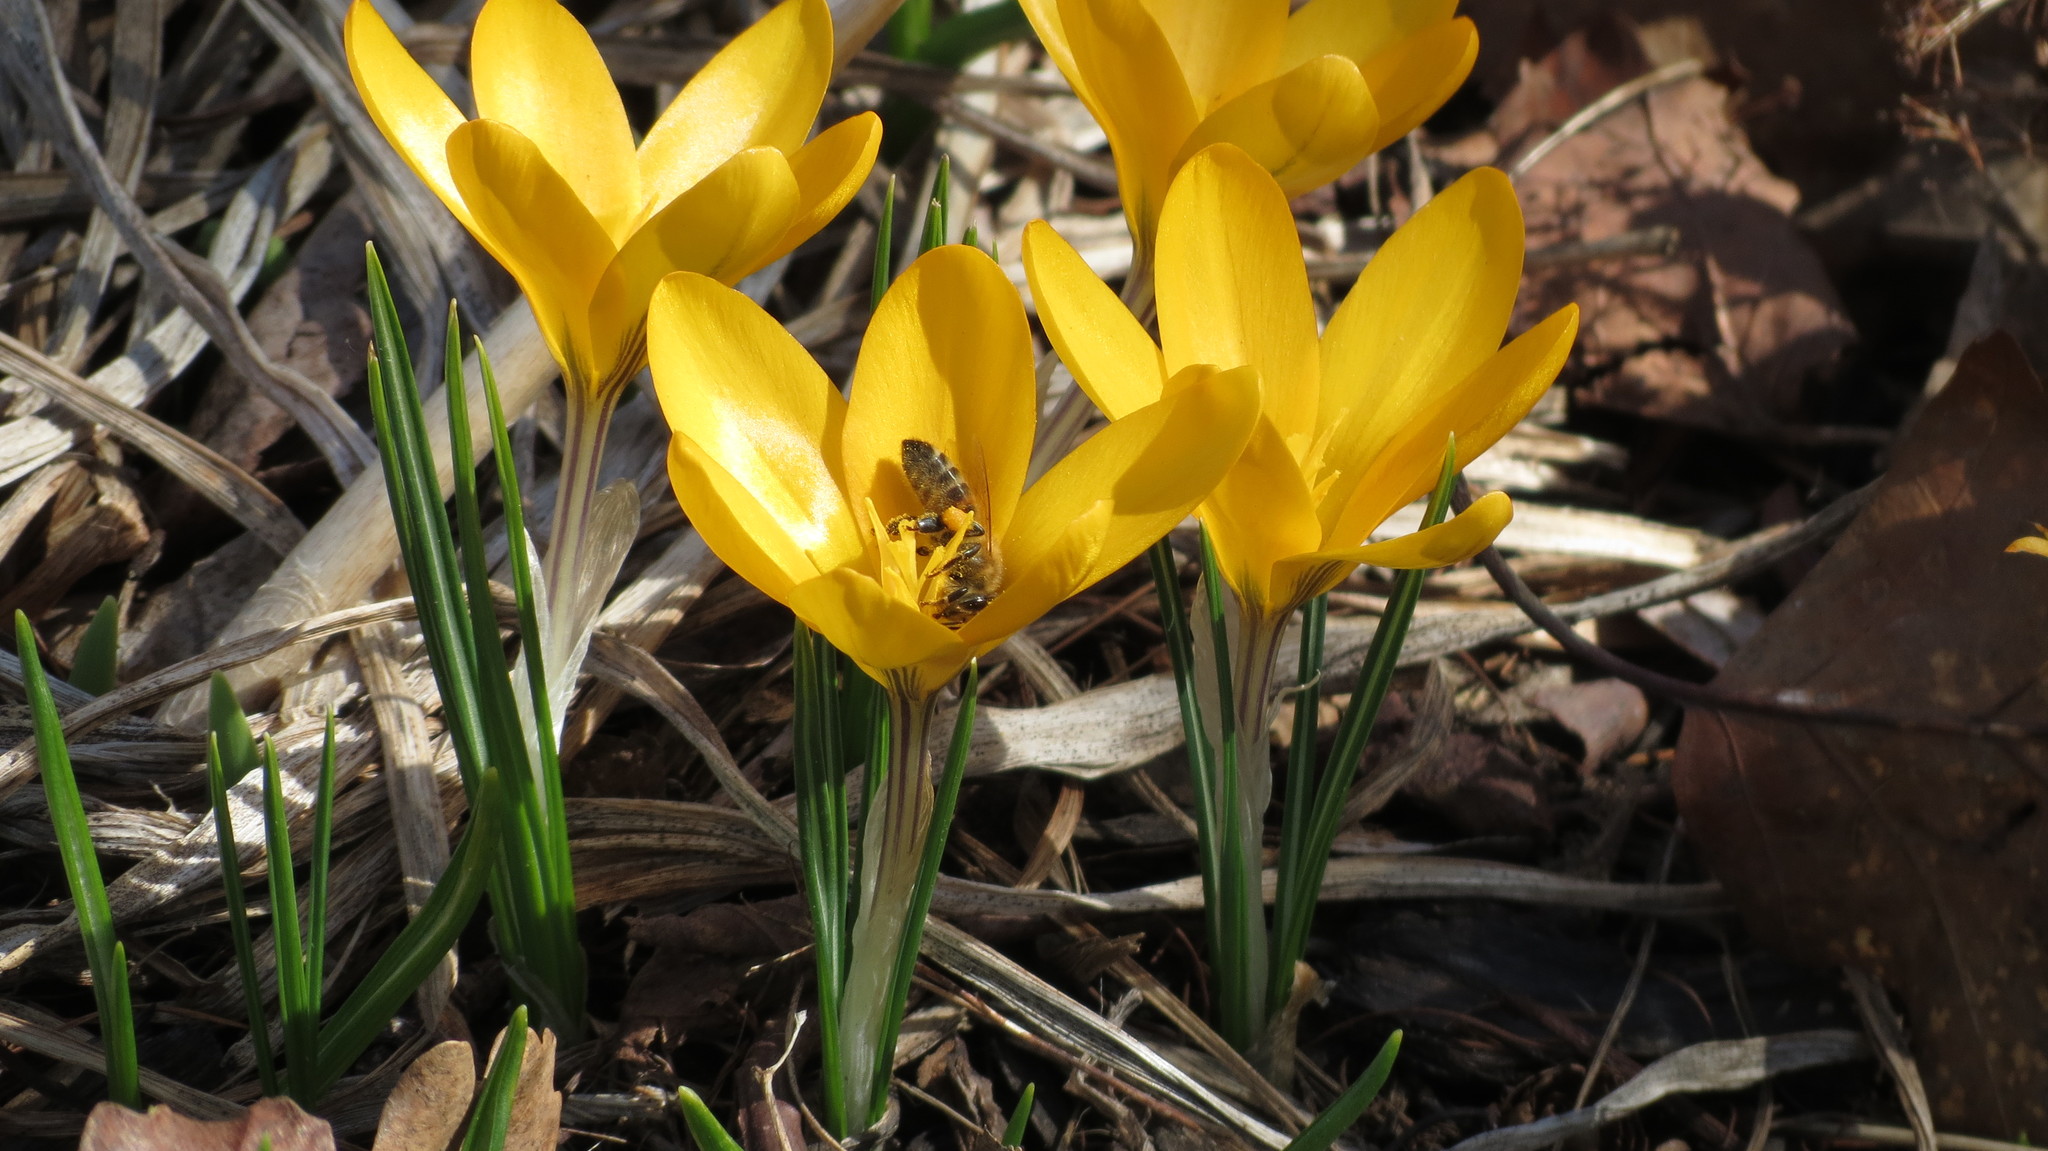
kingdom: Animalia
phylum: Arthropoda
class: Insecta
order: Hymenoptera
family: Apidae
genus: Apis
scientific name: Apis mellifera
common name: Honey bee
